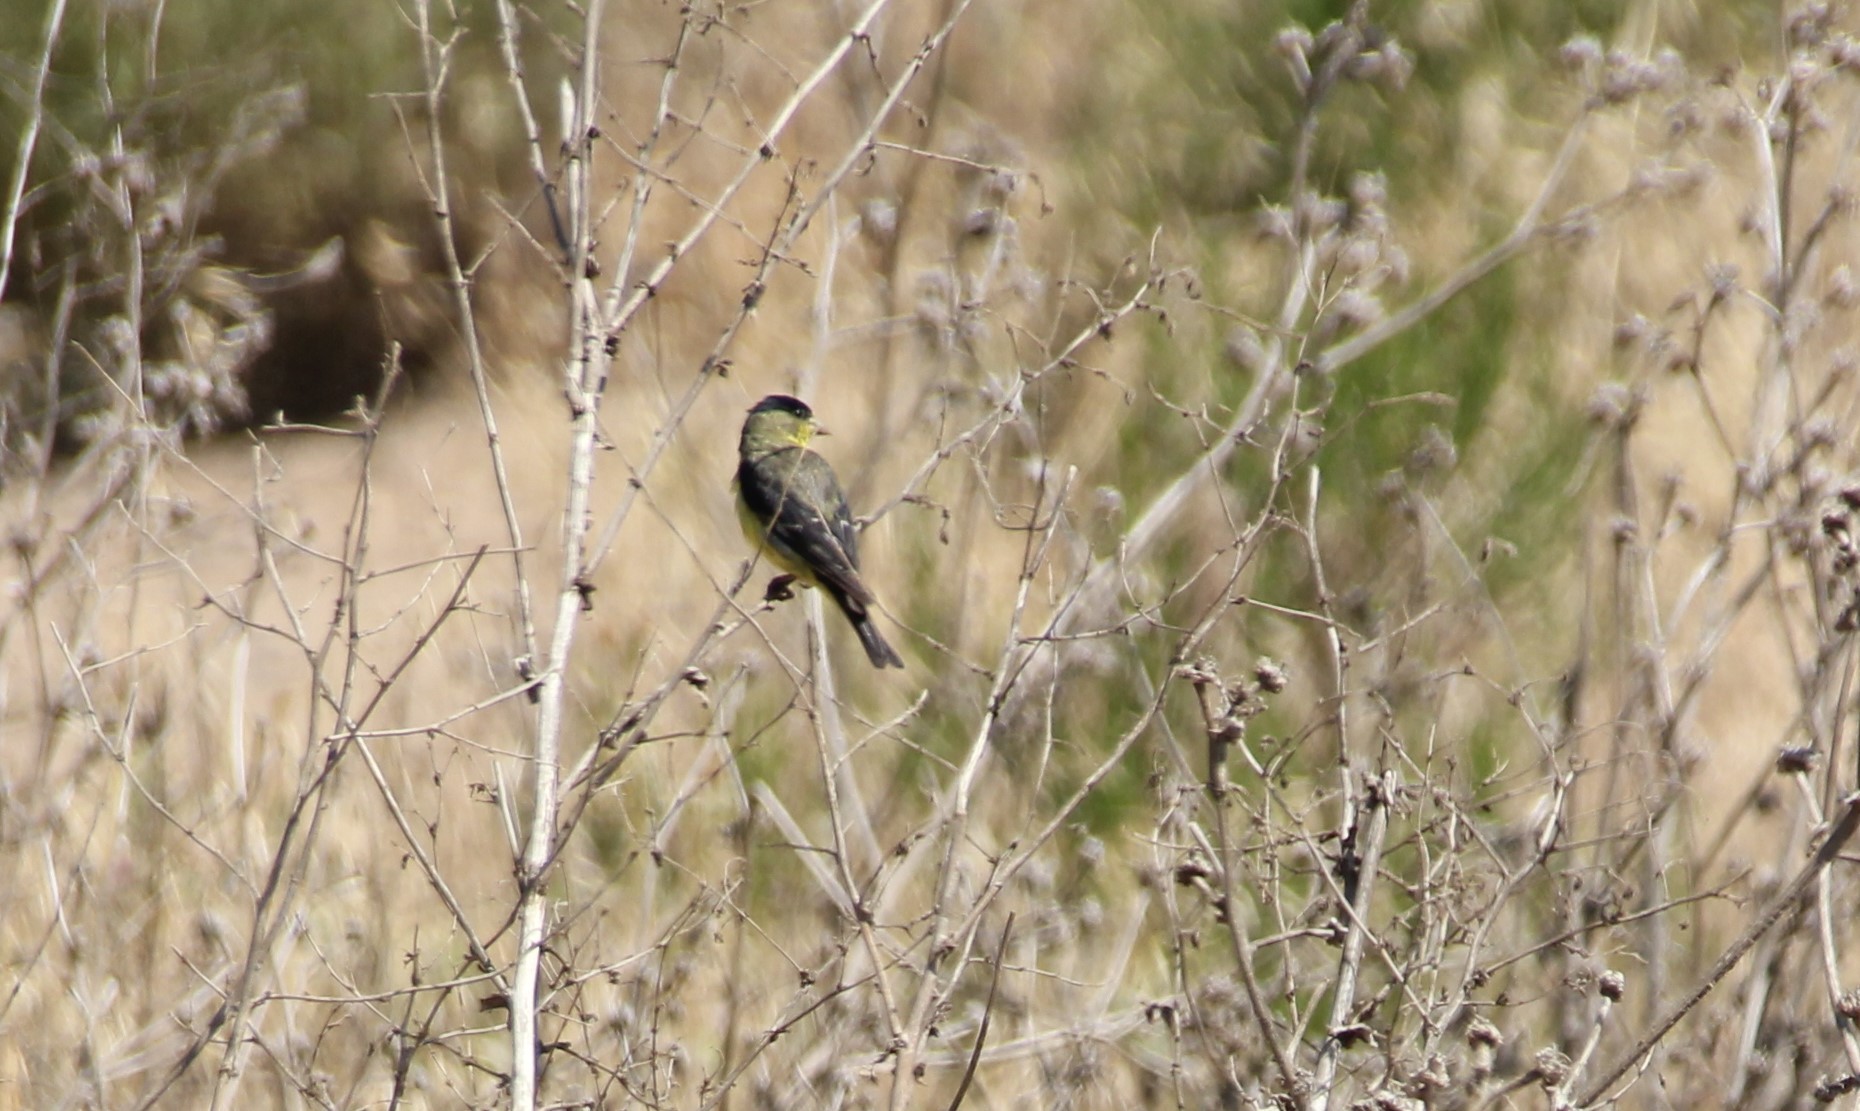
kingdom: Animalia
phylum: Chordata
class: Aves
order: Passeriformes
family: Fringillidae
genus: Spinus
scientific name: Spinus psaltria
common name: Lesser goldfinch
